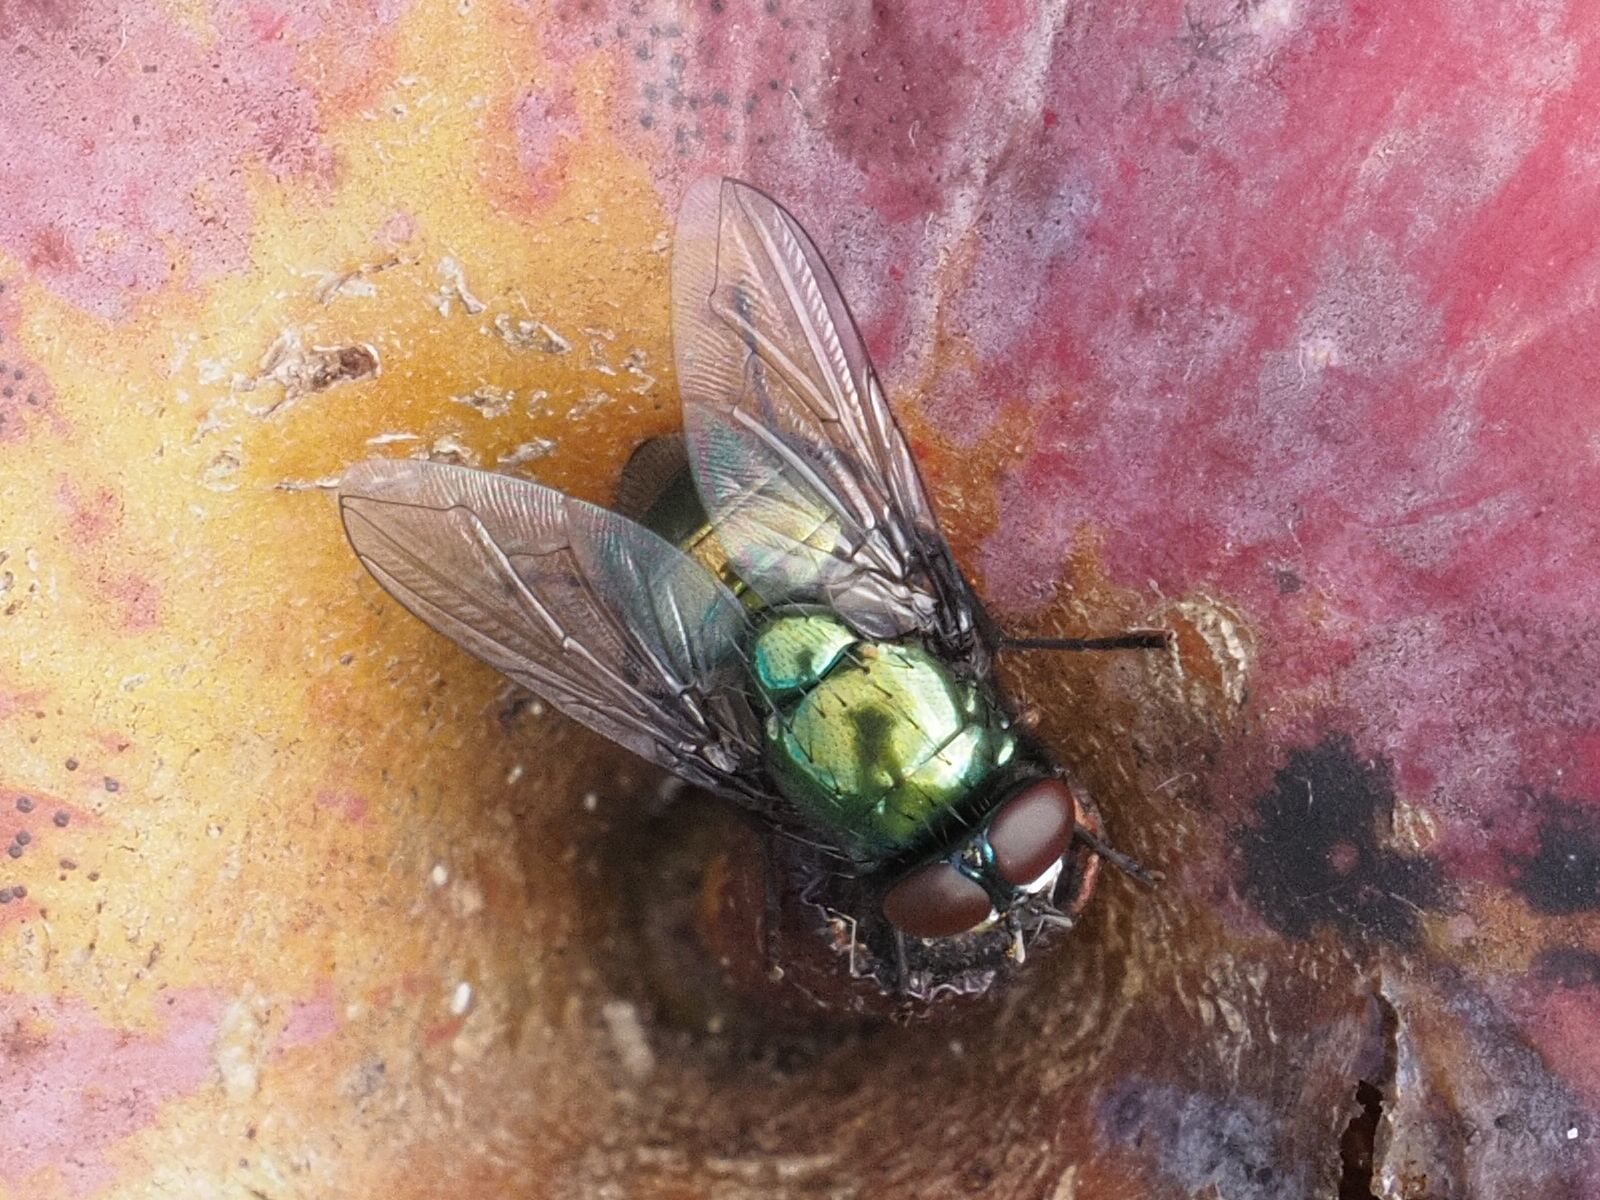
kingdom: Animalia
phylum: Arthropoda
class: Insecta
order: Diptera
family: Muscidae
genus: Neomyia
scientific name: Neomyia cornicina
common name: House fly
